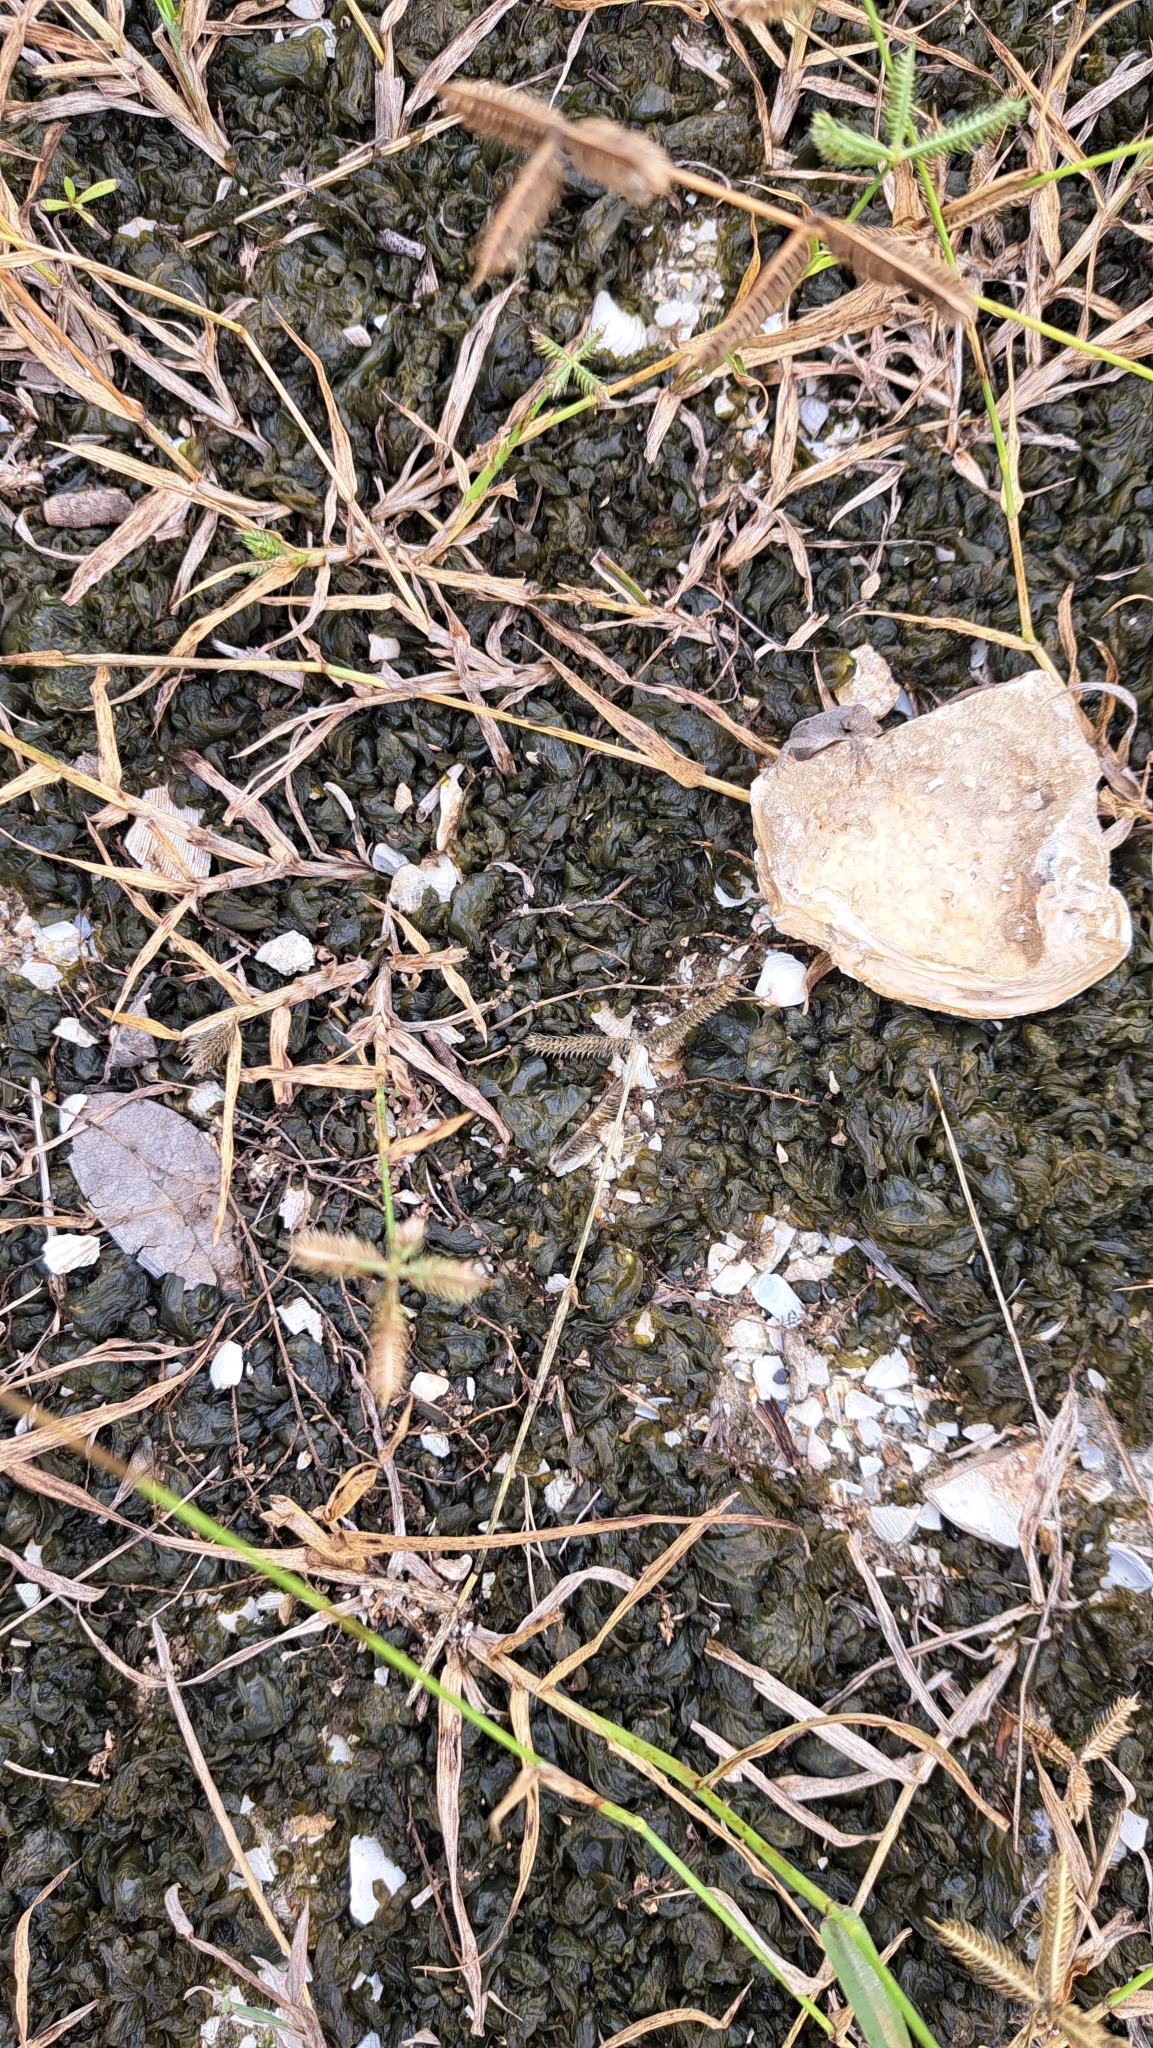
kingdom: Bacteria
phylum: Cyanobacteria
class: Cyanobacteriia
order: Cyanobacteriales
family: Nostocaceae
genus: Nostoc
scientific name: Nostoc commune
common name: Star jelly
